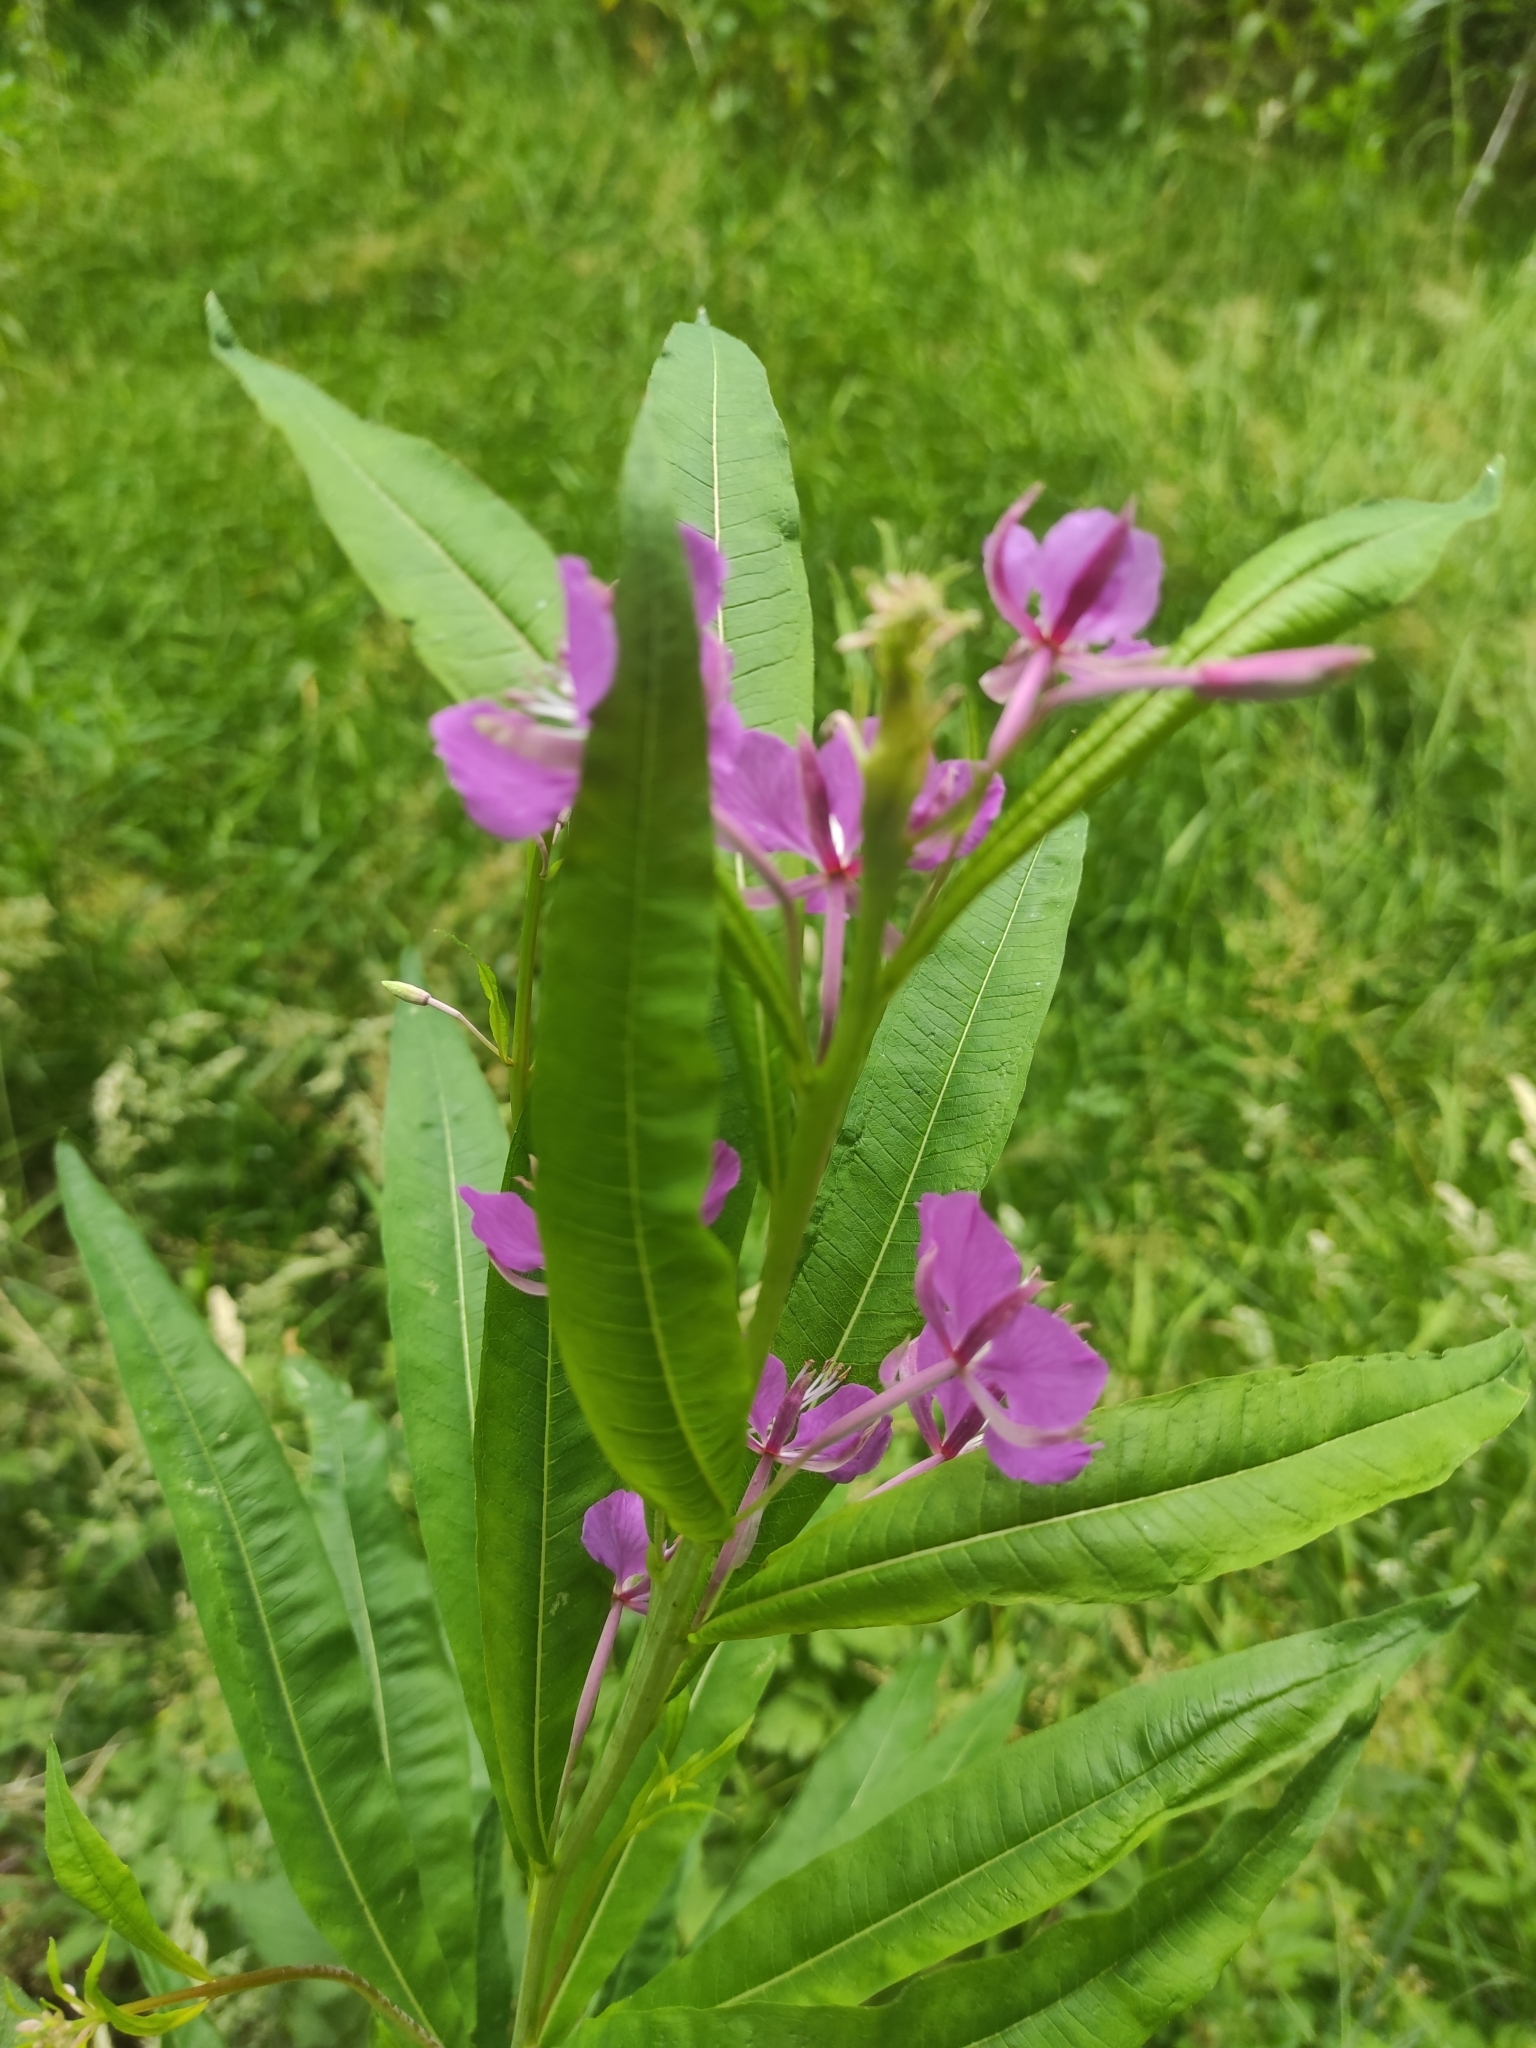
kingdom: Plantae
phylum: Tracheophyta
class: Magnoliopsida
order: Myrtales
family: Onagraceae
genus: Chamaenerion
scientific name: Chamaenerion angustifolium
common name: Fireweed
